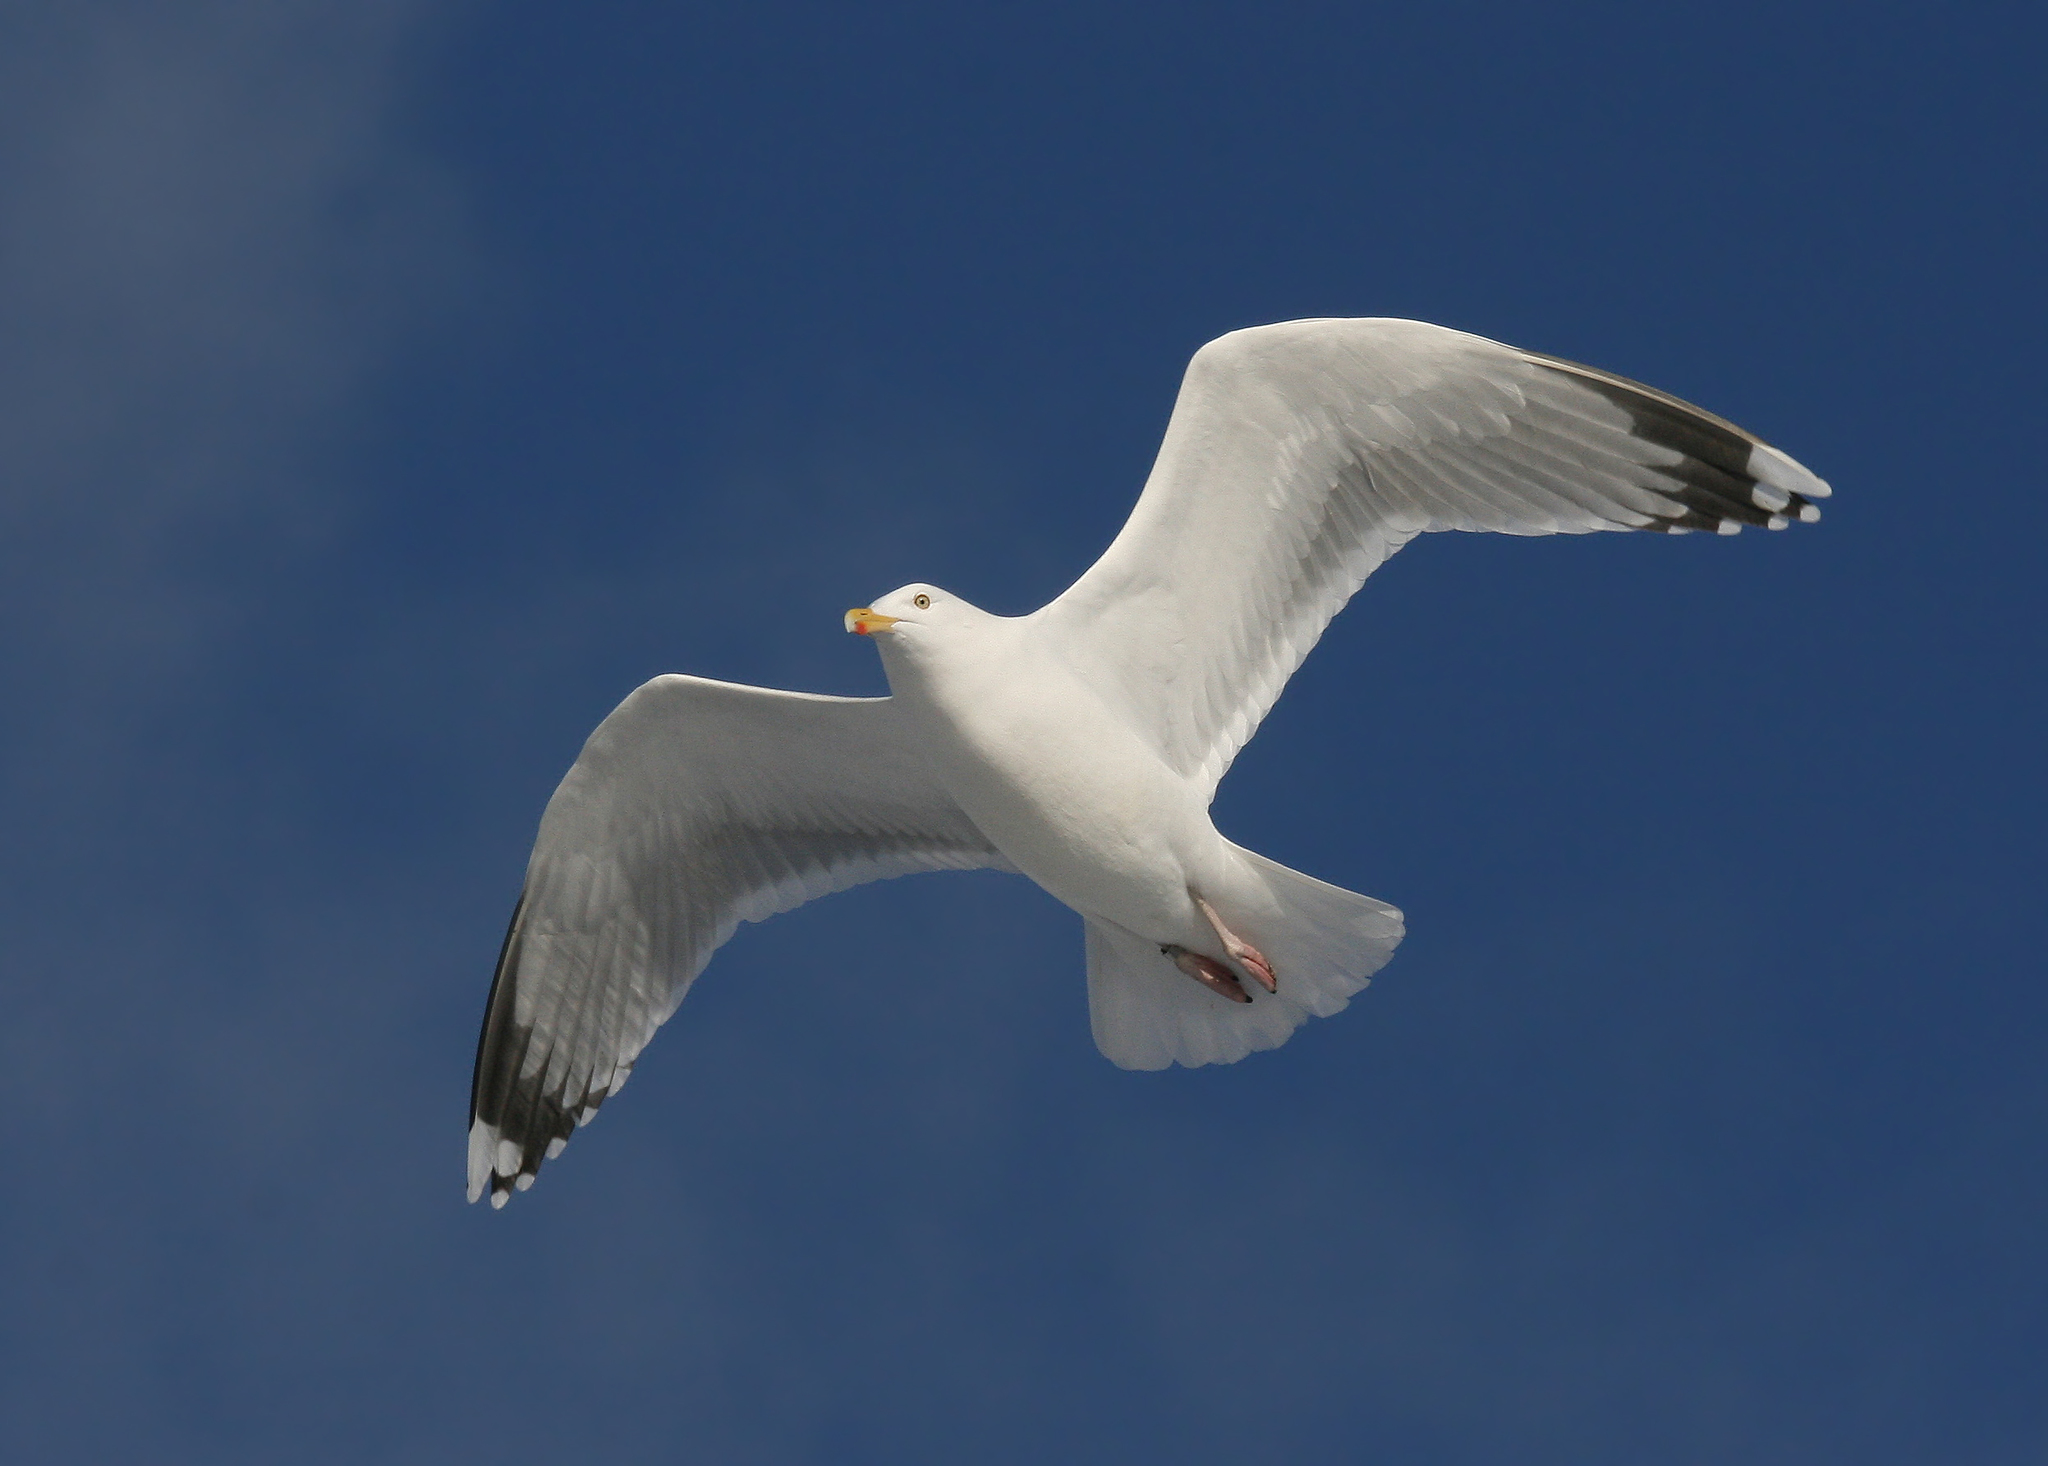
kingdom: Animalia
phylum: Chordata
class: Aves
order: Charadriiformes
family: Laridae
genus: Larus
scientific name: Larus argentatus
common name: Herring gull
